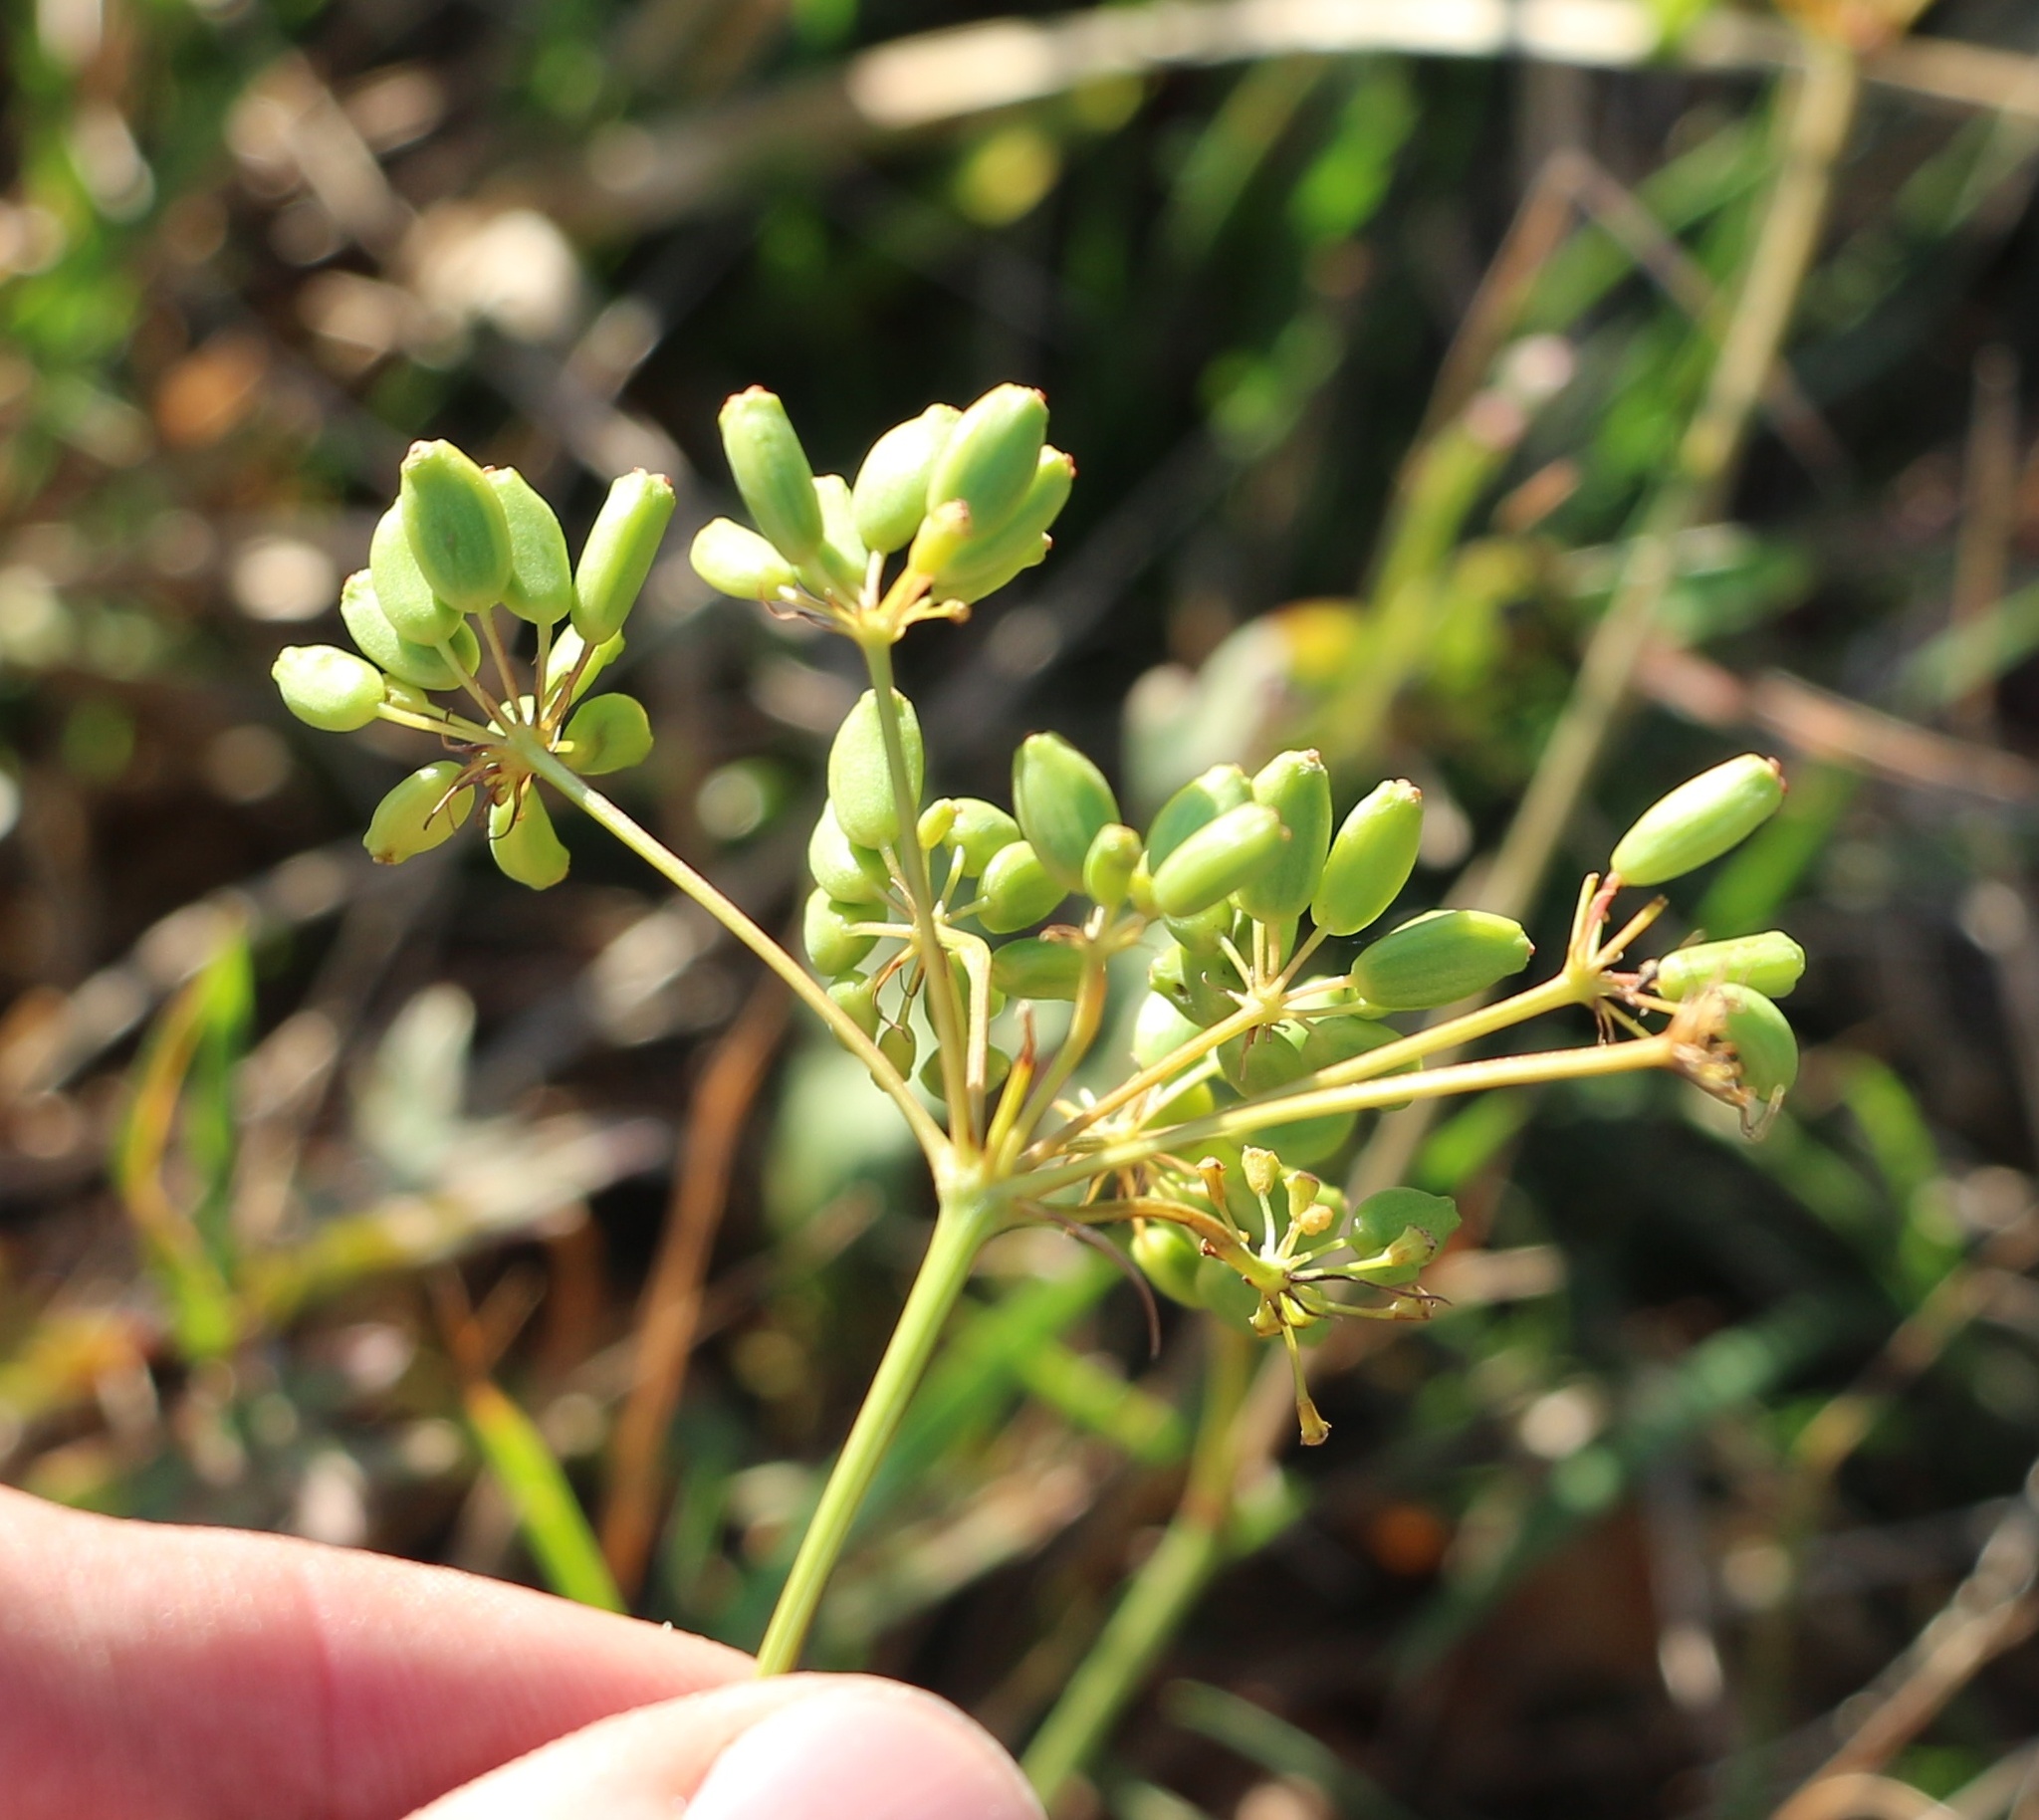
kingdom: Plantae
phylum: Tracheophyta
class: Magnoliopsida
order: Apiales
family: Apiaceae
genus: Peucedanum
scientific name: Peucedanum longifolium
